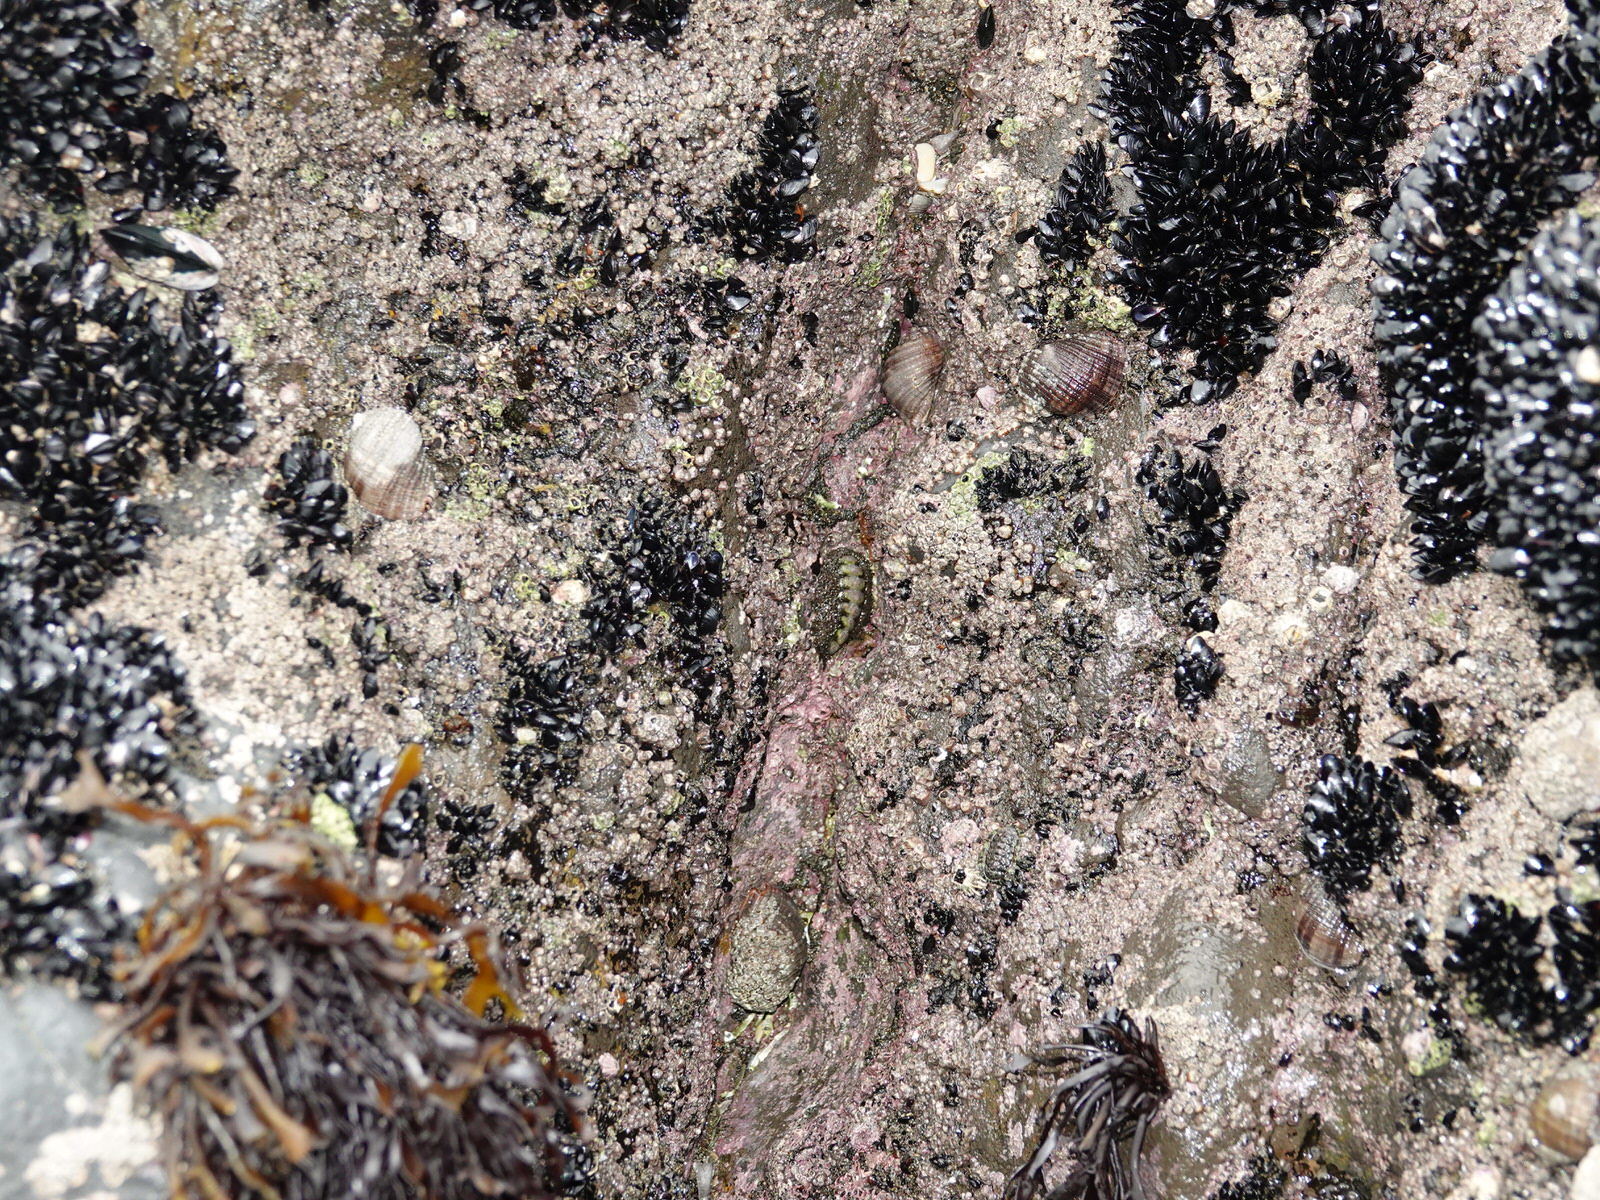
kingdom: Animalia
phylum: Mollusca
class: Polyplacophora
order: Chitonida
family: Mopaliidae
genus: Plaxiphora
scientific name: Plaxiphora obtecta
